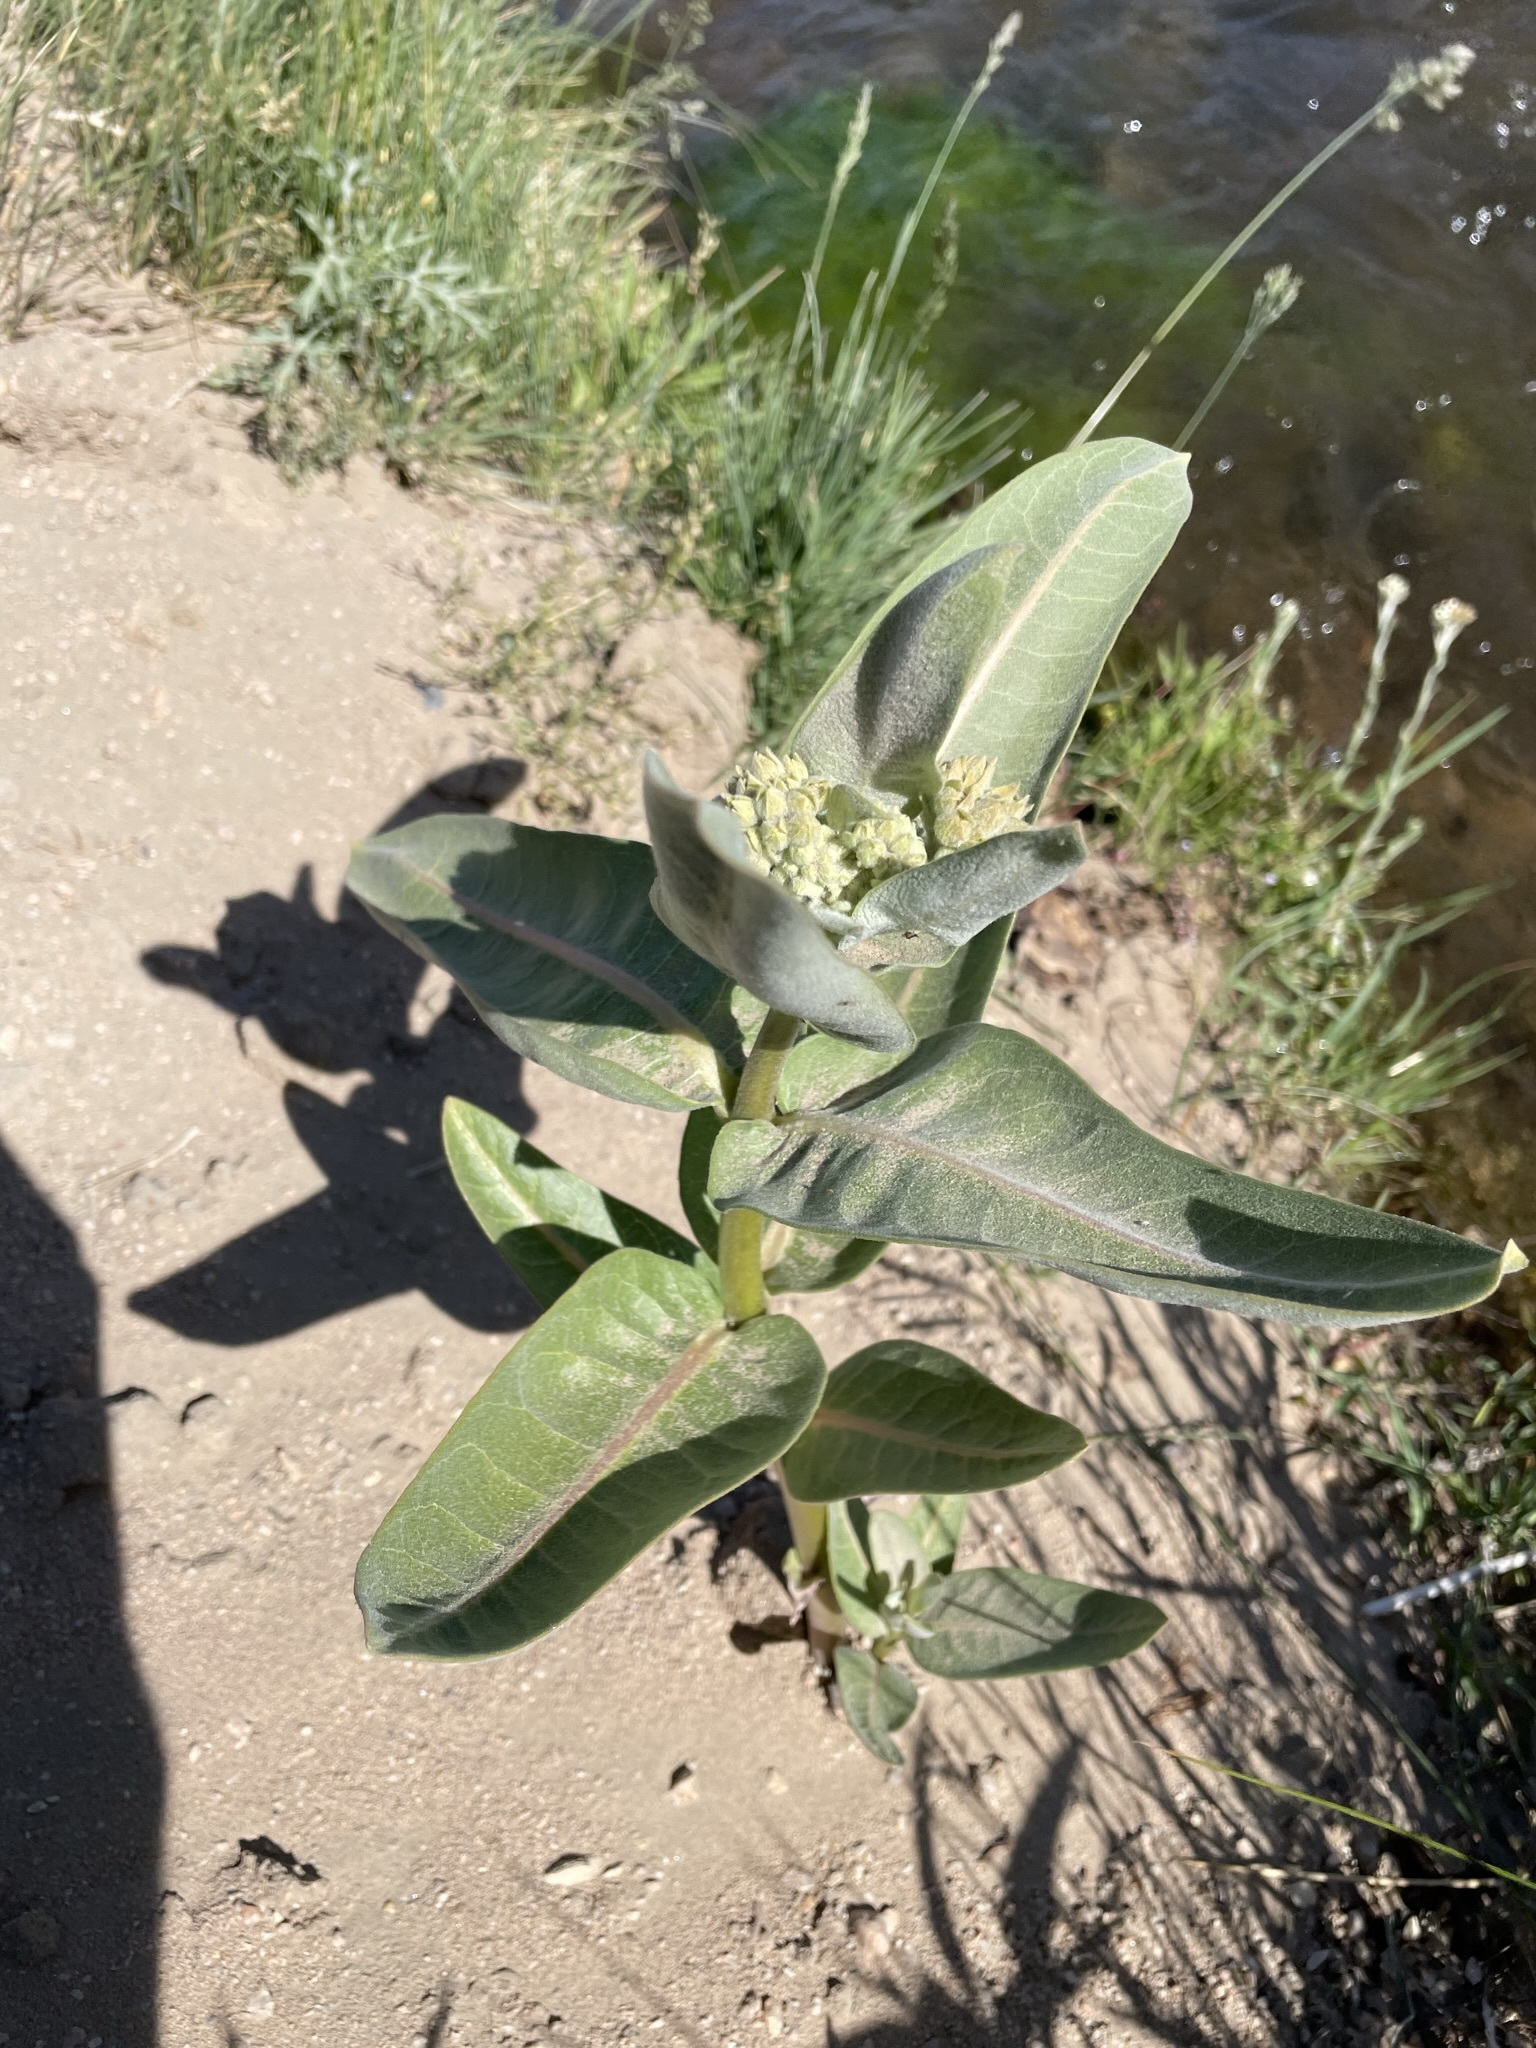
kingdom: Plantae
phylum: Tracheophyta
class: Magnoliopsida
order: Gentianales
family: Apocynaceae
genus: Asclepias
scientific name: Asclepias speciosa
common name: Showy milkweed
